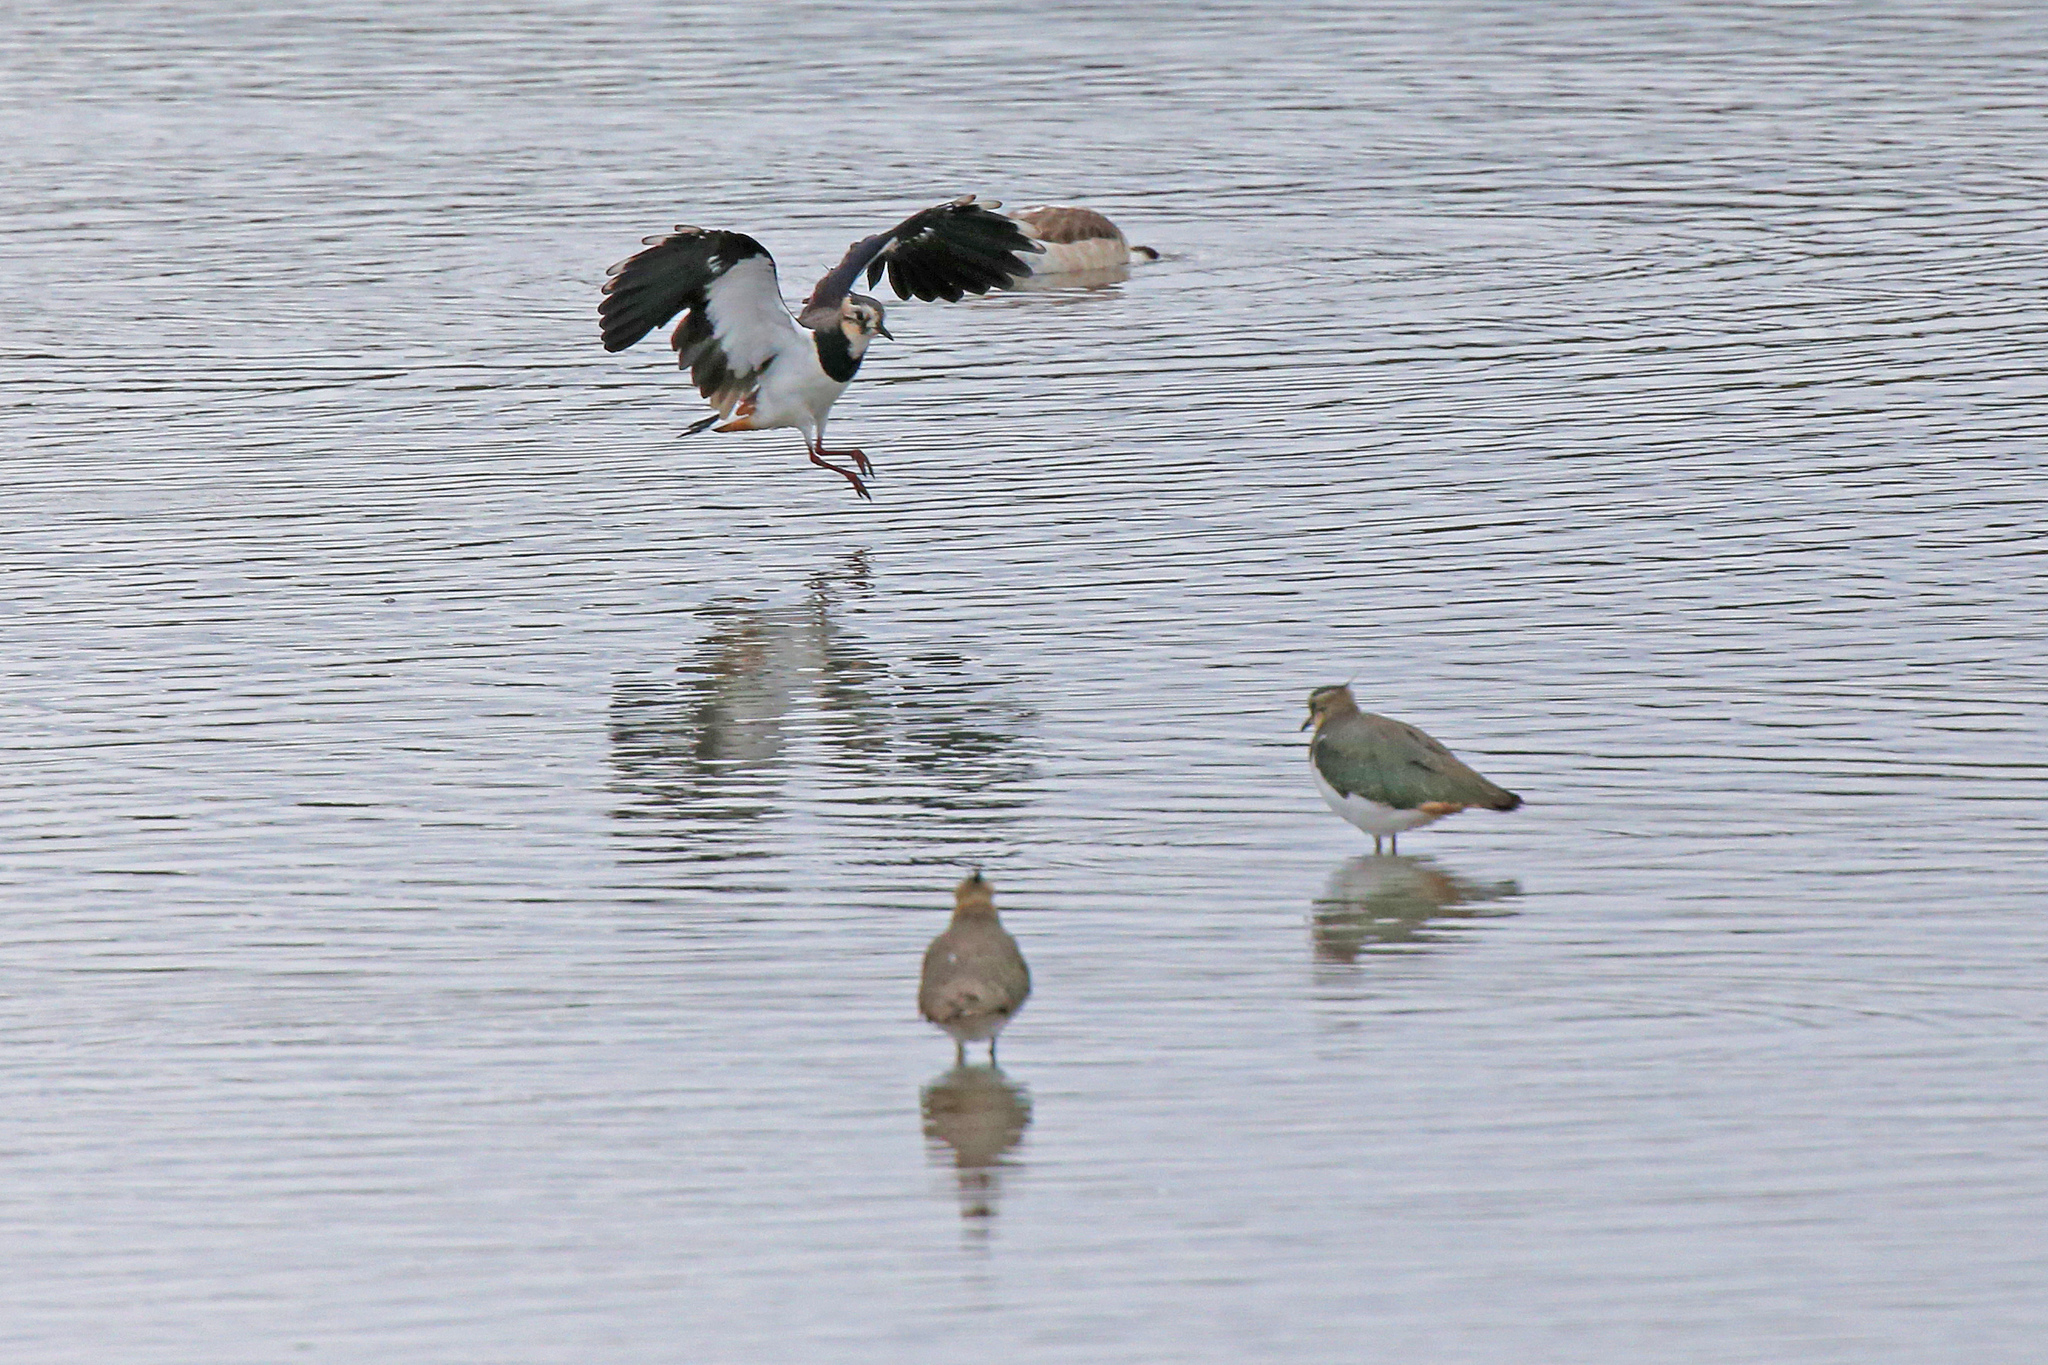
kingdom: Animalia
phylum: Chordata
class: Aves
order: Charadriiformes
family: Charadriidae
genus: Vanellus
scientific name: Vanellus vanellus
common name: Northern lapwing
